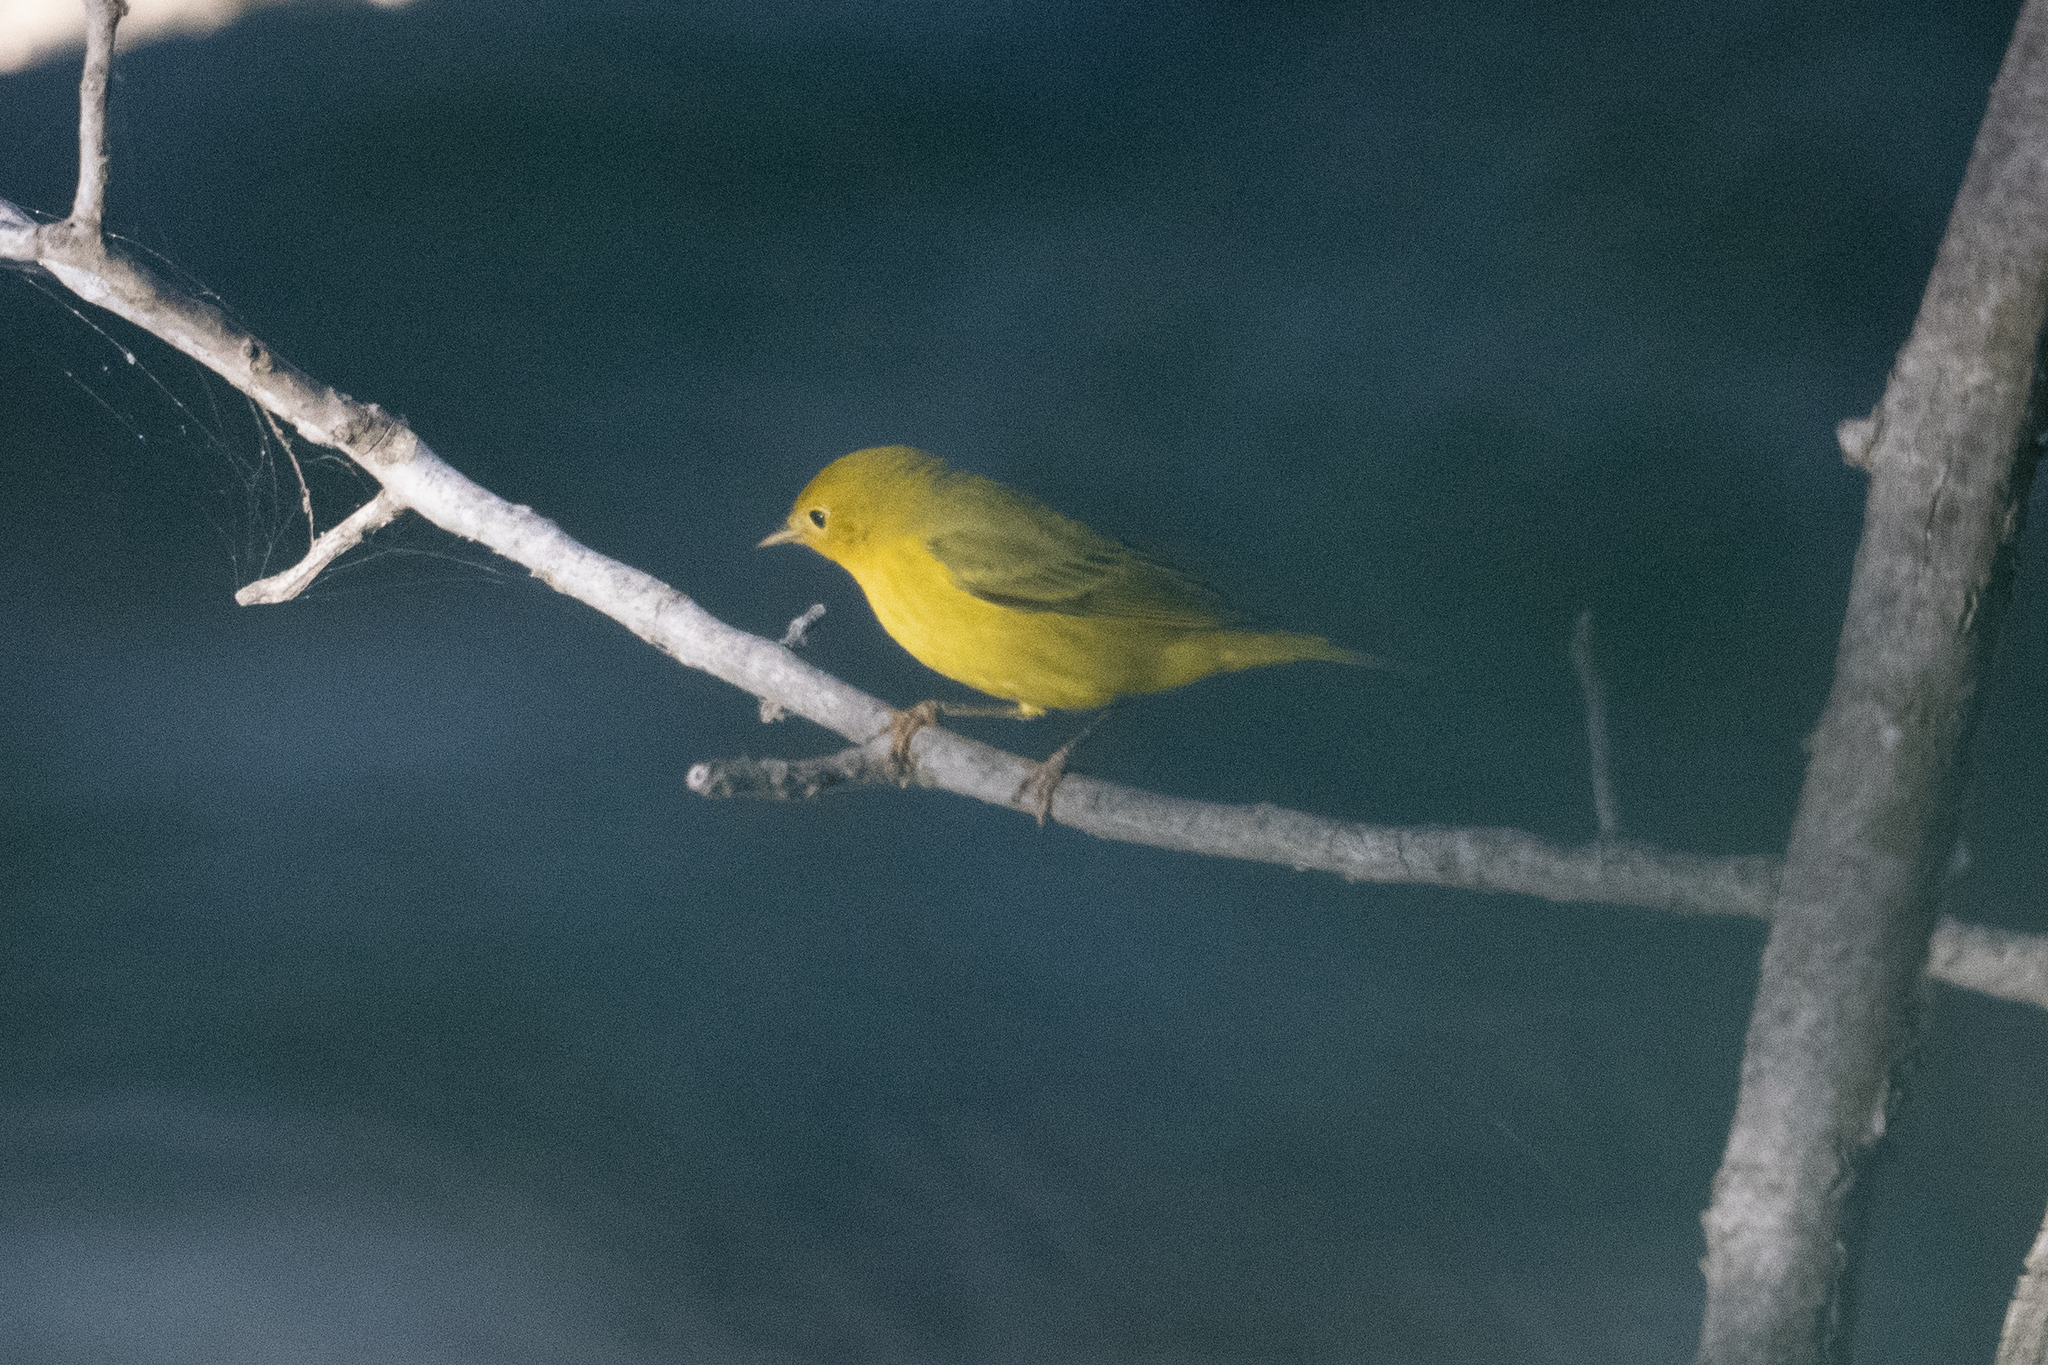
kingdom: Animalia
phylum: Chordata
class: Aves
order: Passeriformes
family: Parulidae
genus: Setophaga
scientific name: Setophaga petechia
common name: Yellow warbler
